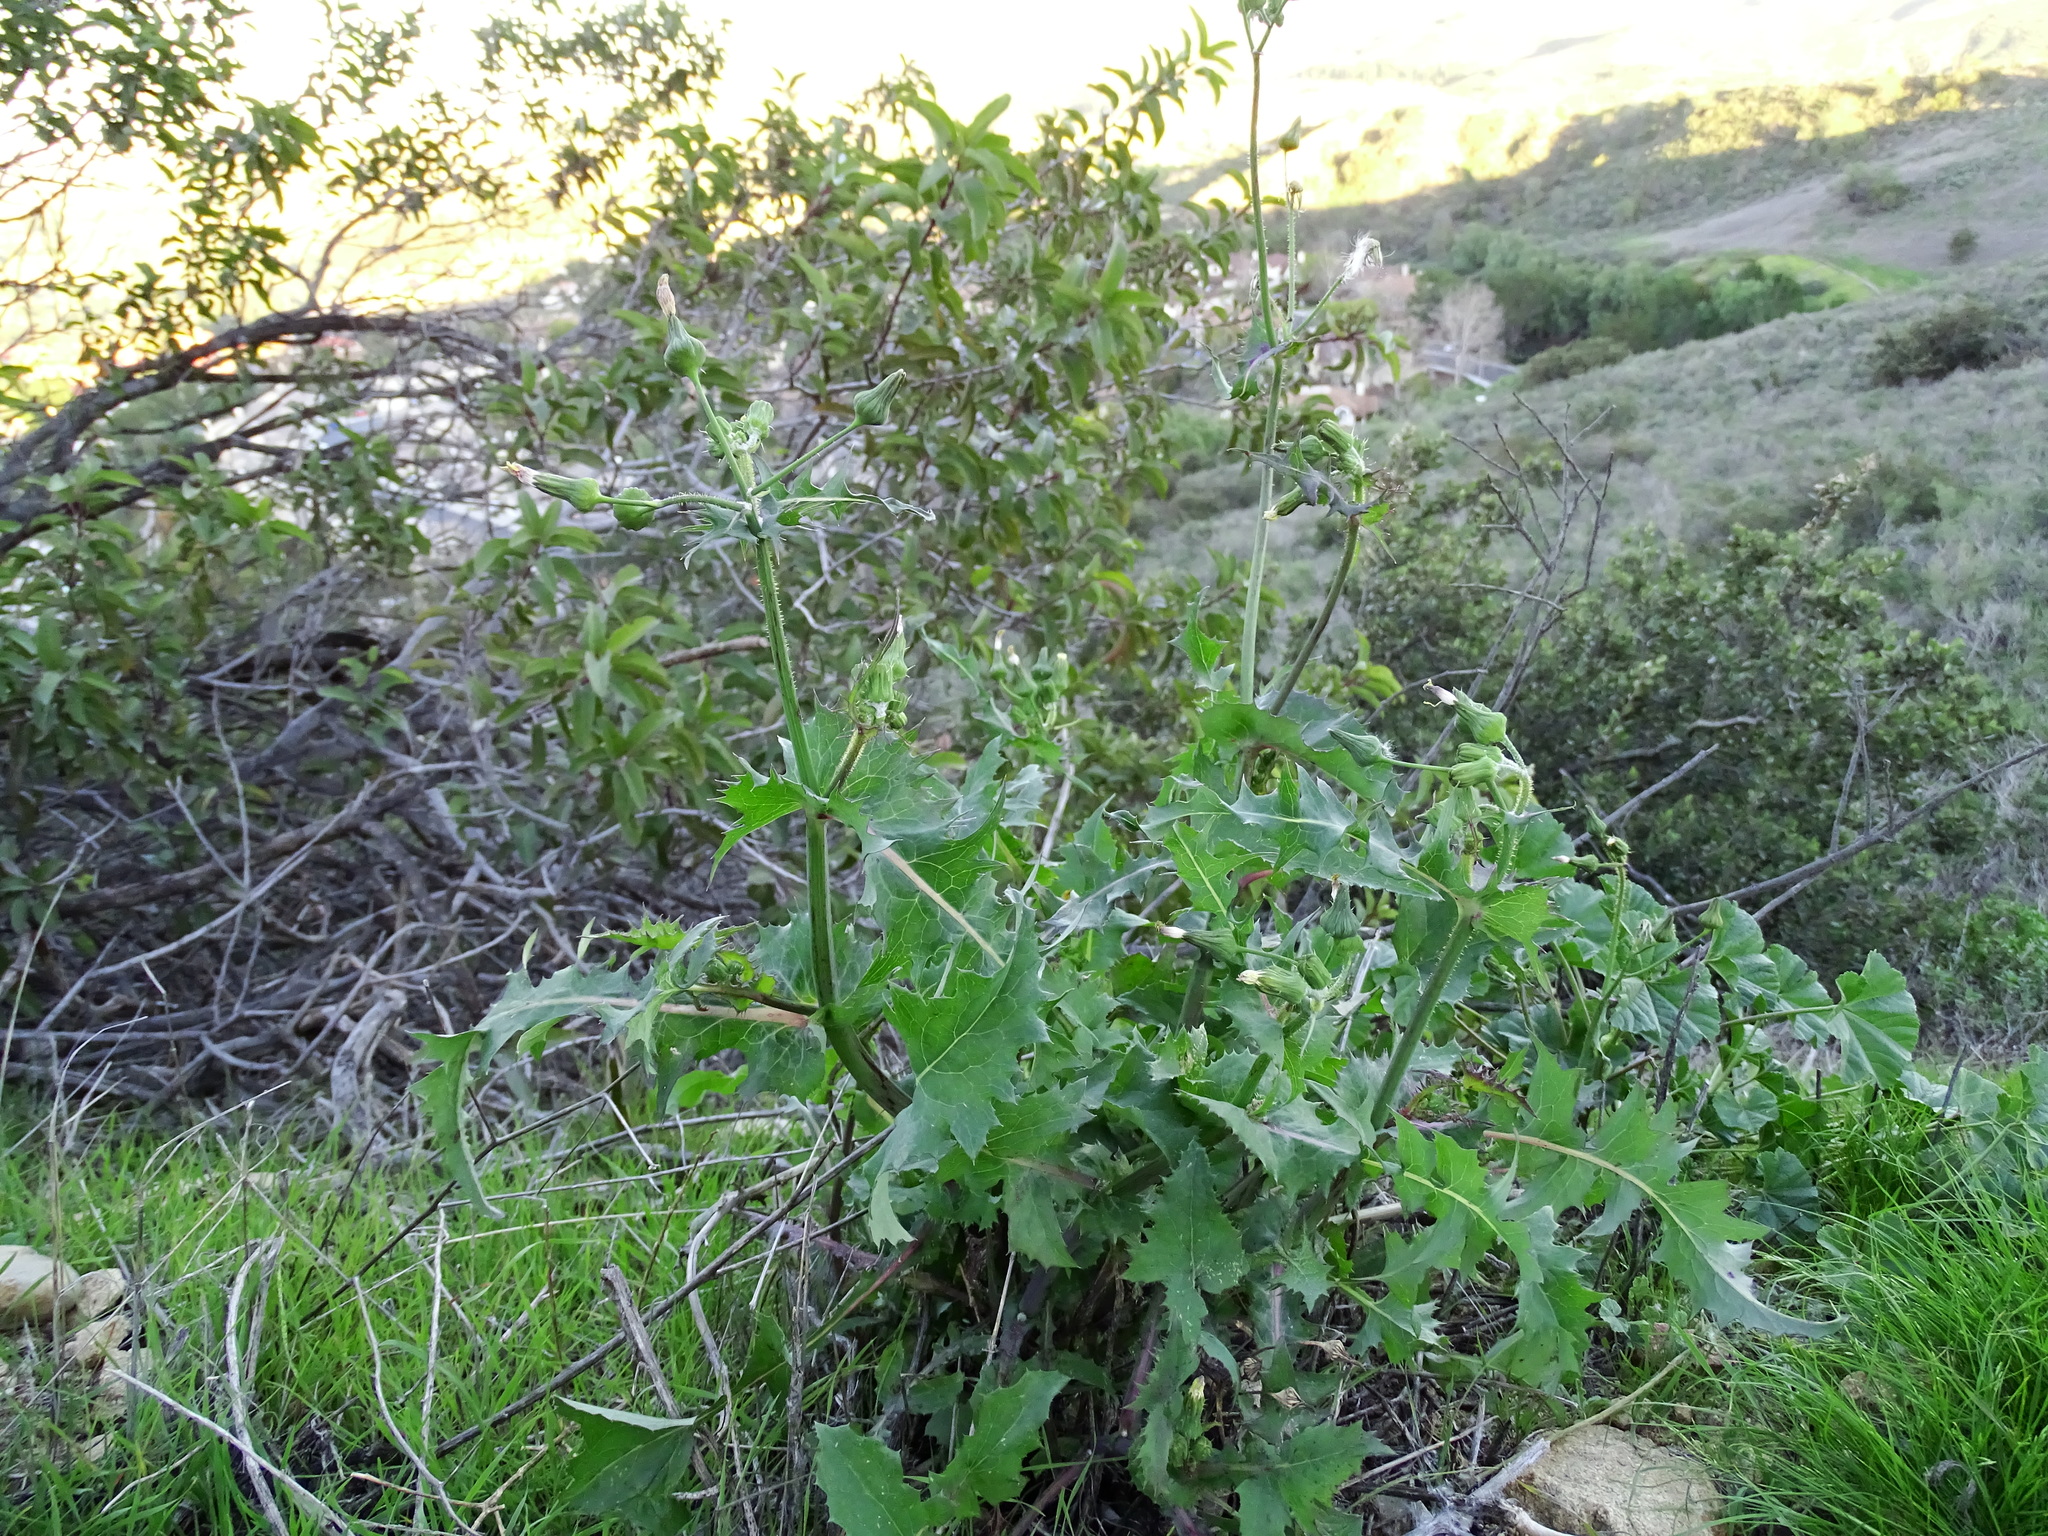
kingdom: Plantae
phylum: Tracheophyta
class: Magnoliopsida
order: Asterales
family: Asteraceae
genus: Sonchus
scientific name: Sonchus oleraceus
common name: Common sowthistle
